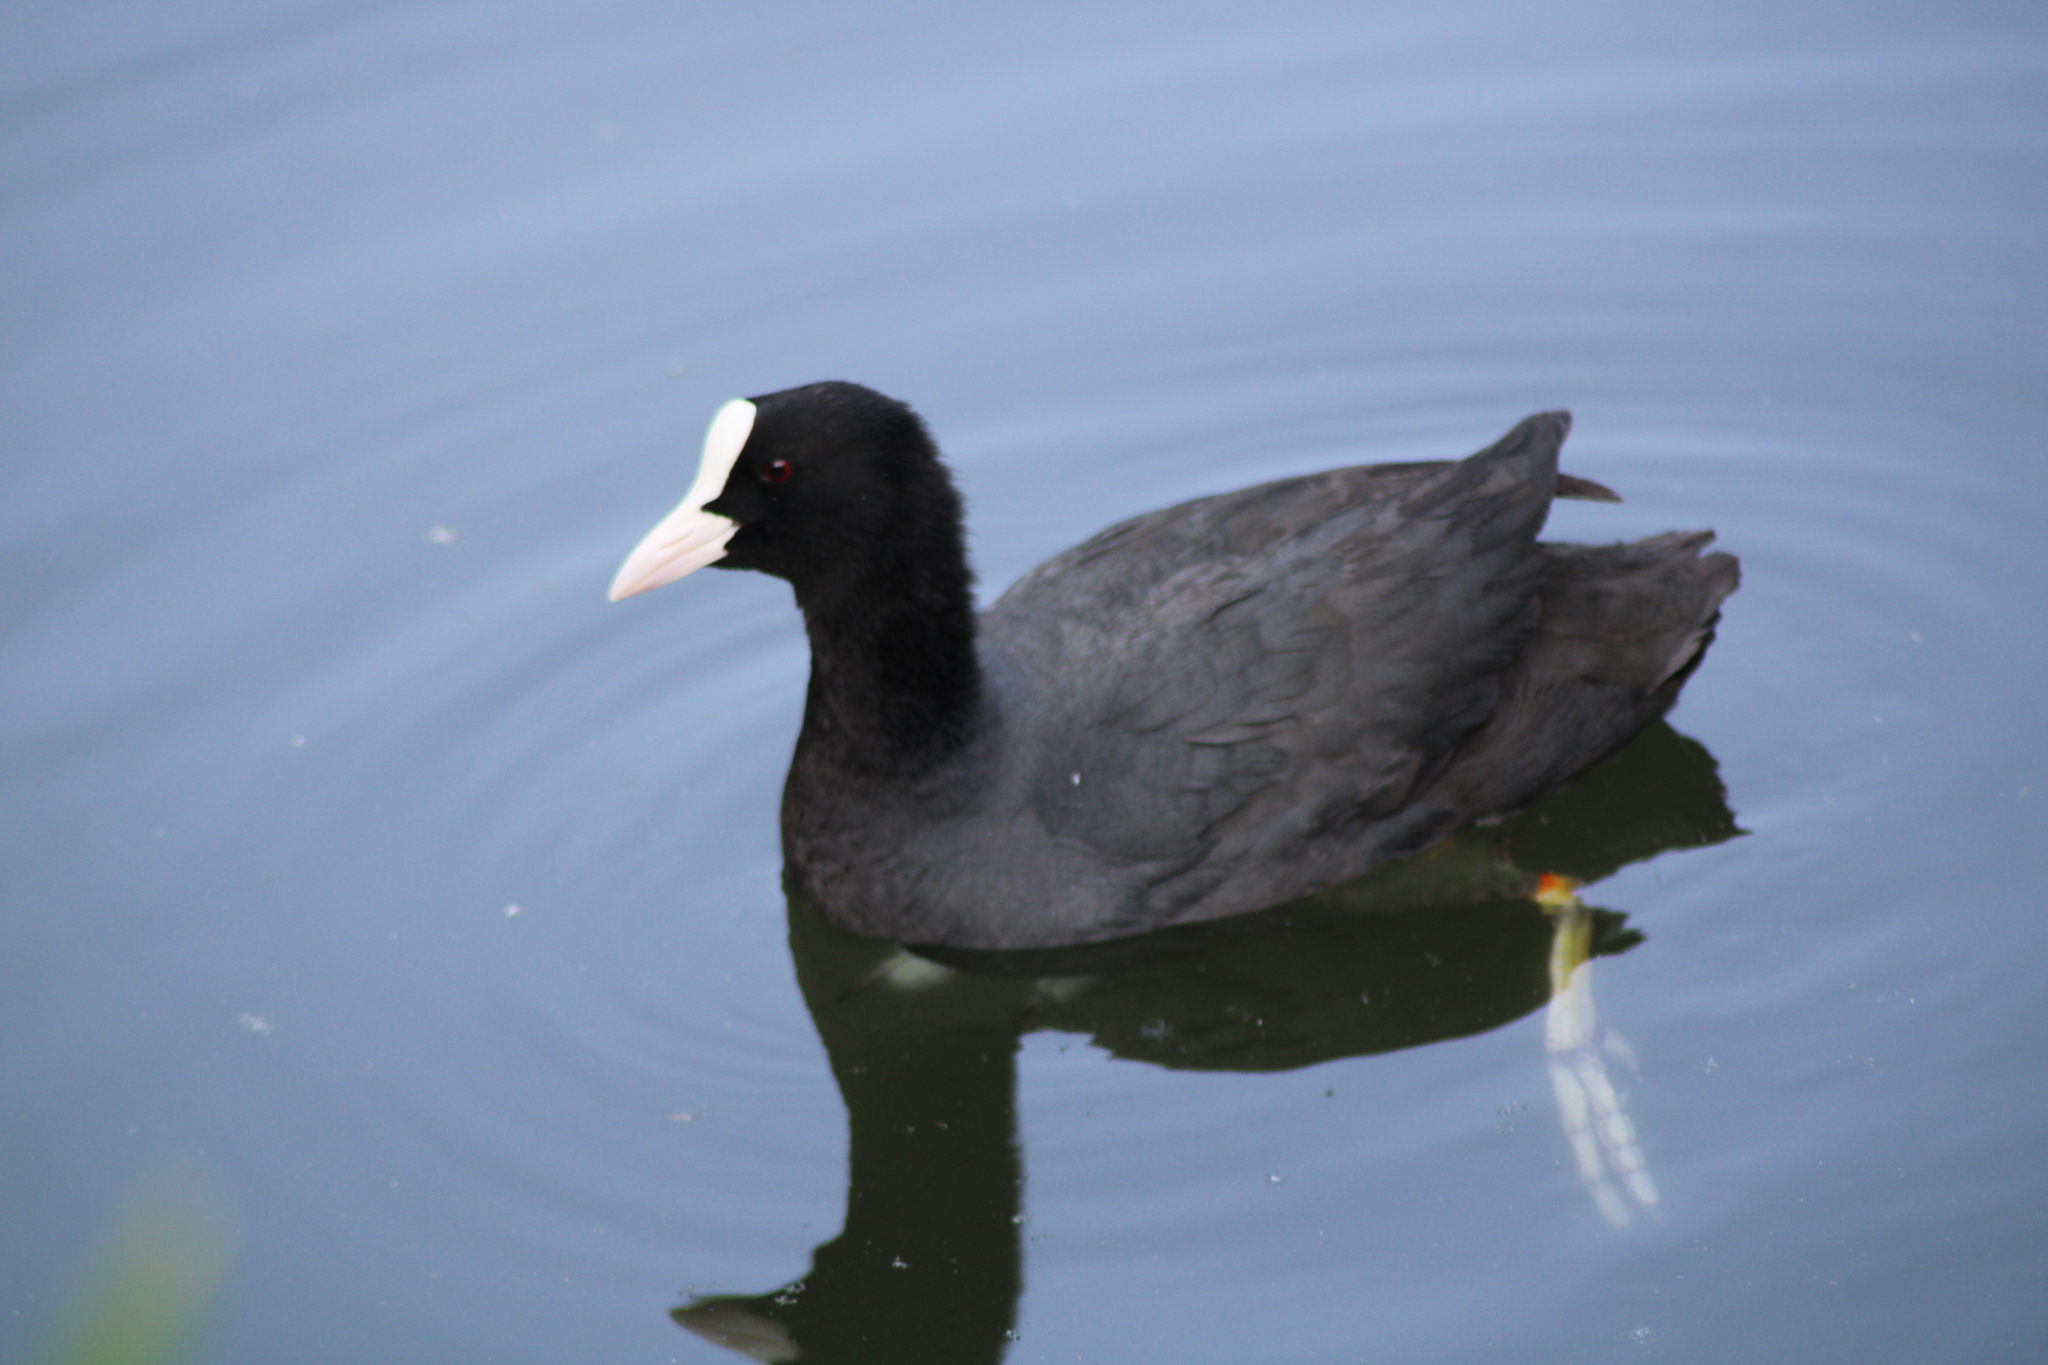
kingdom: Animalia
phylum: Chordata
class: Aves
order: Gruiformes
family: Rallidae
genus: Fulica
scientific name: Fulica atra
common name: Eurasian coot
